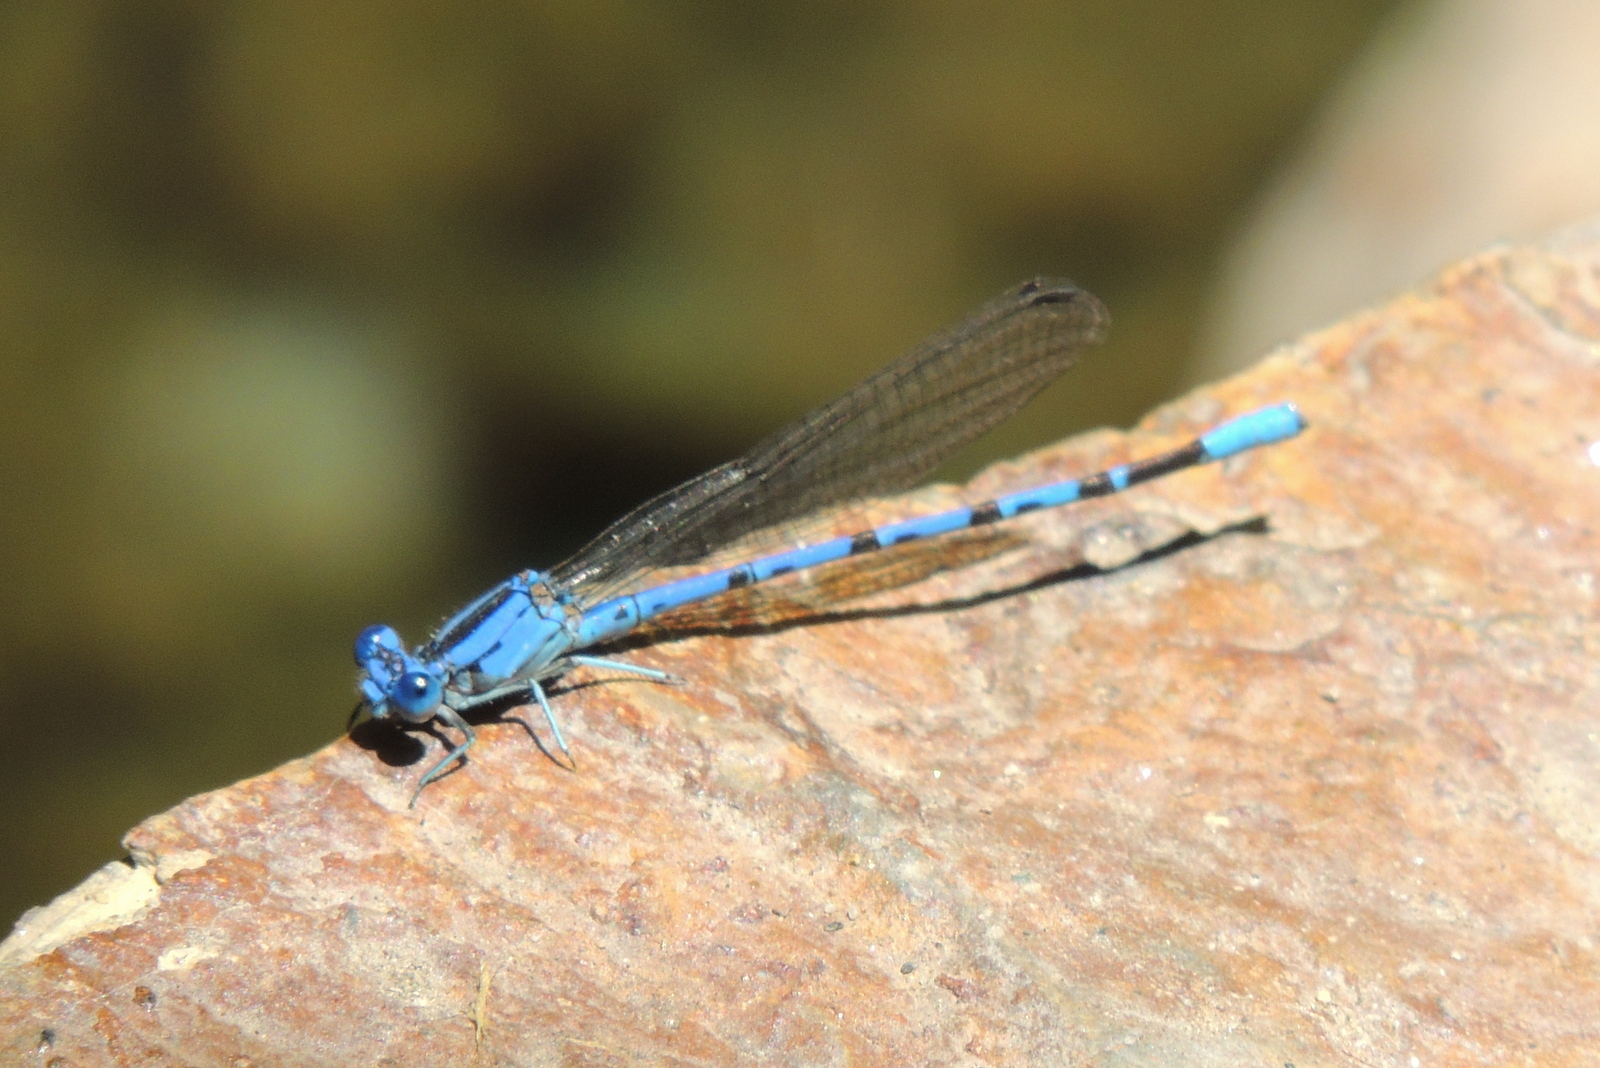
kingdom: Animalia
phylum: Arthropoda
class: Insecta
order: Odonata
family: Coenagrionidae
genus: Argia
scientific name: Argia vivida
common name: Vivid dancer
